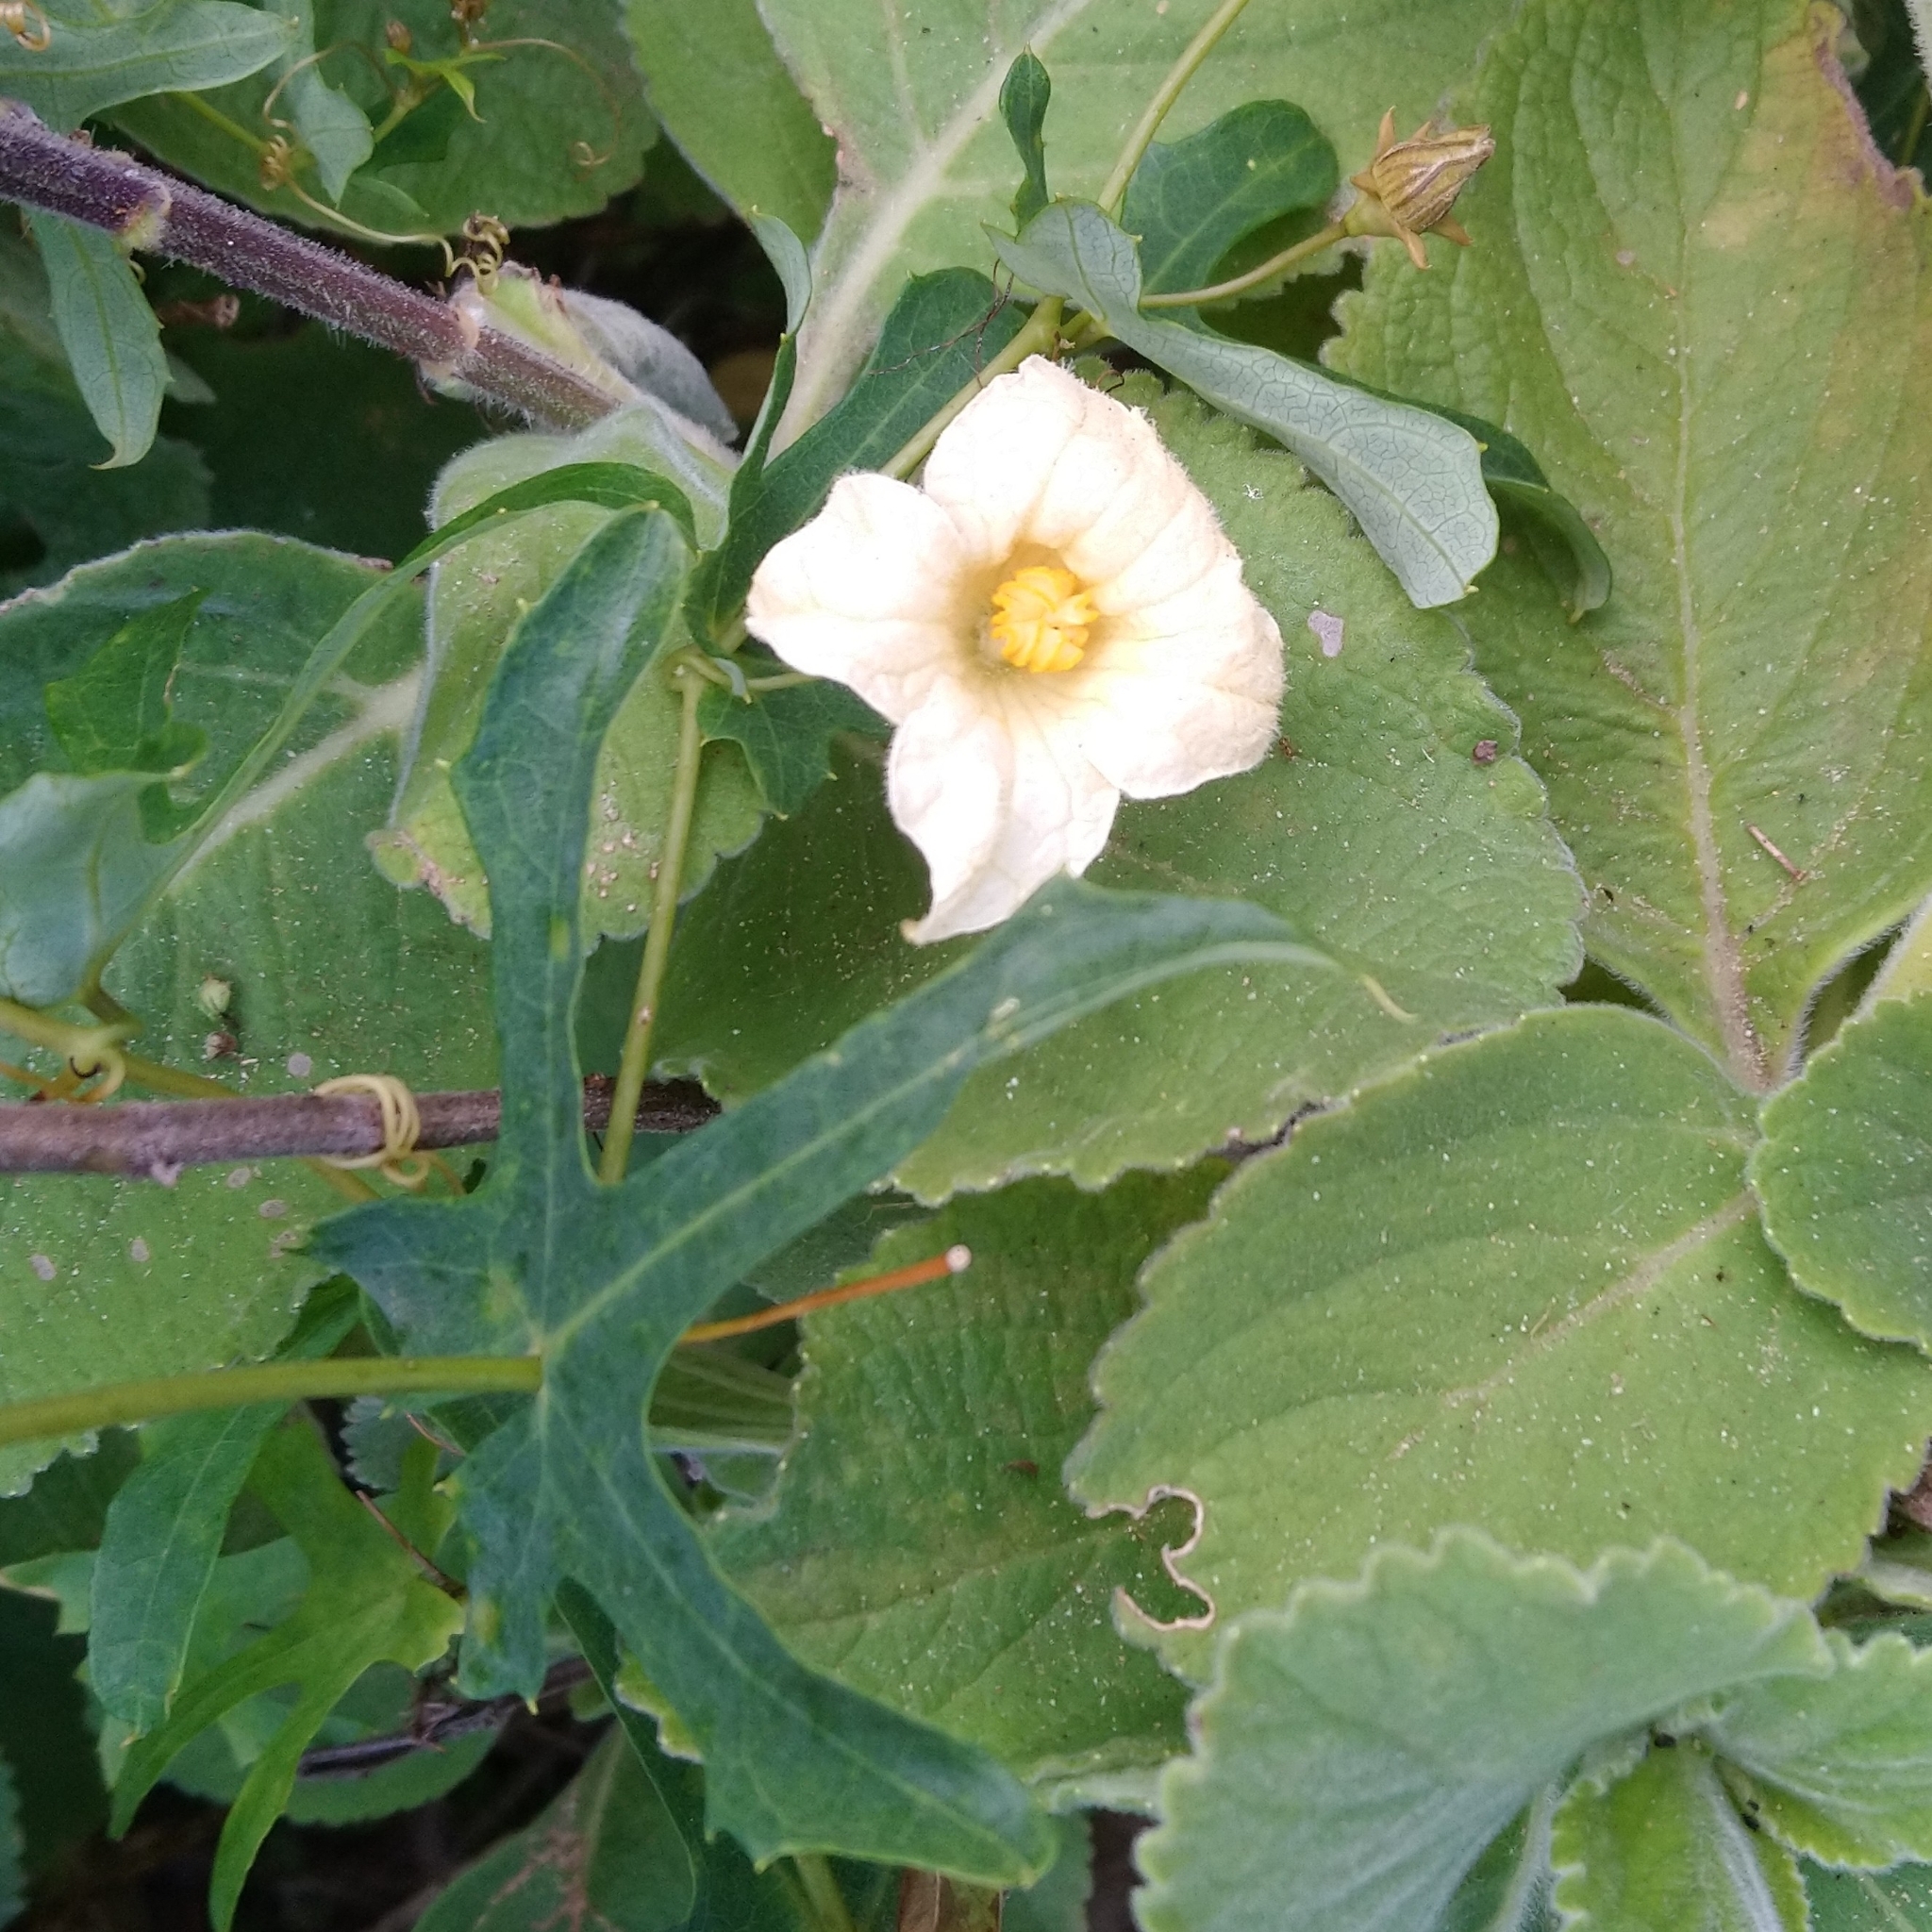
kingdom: Plantae
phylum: Tracheophyta
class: Magnoliopsida
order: Cucurbitales
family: Cucurbitaceae
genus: Coccinia
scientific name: Coccinia quinqueloba
